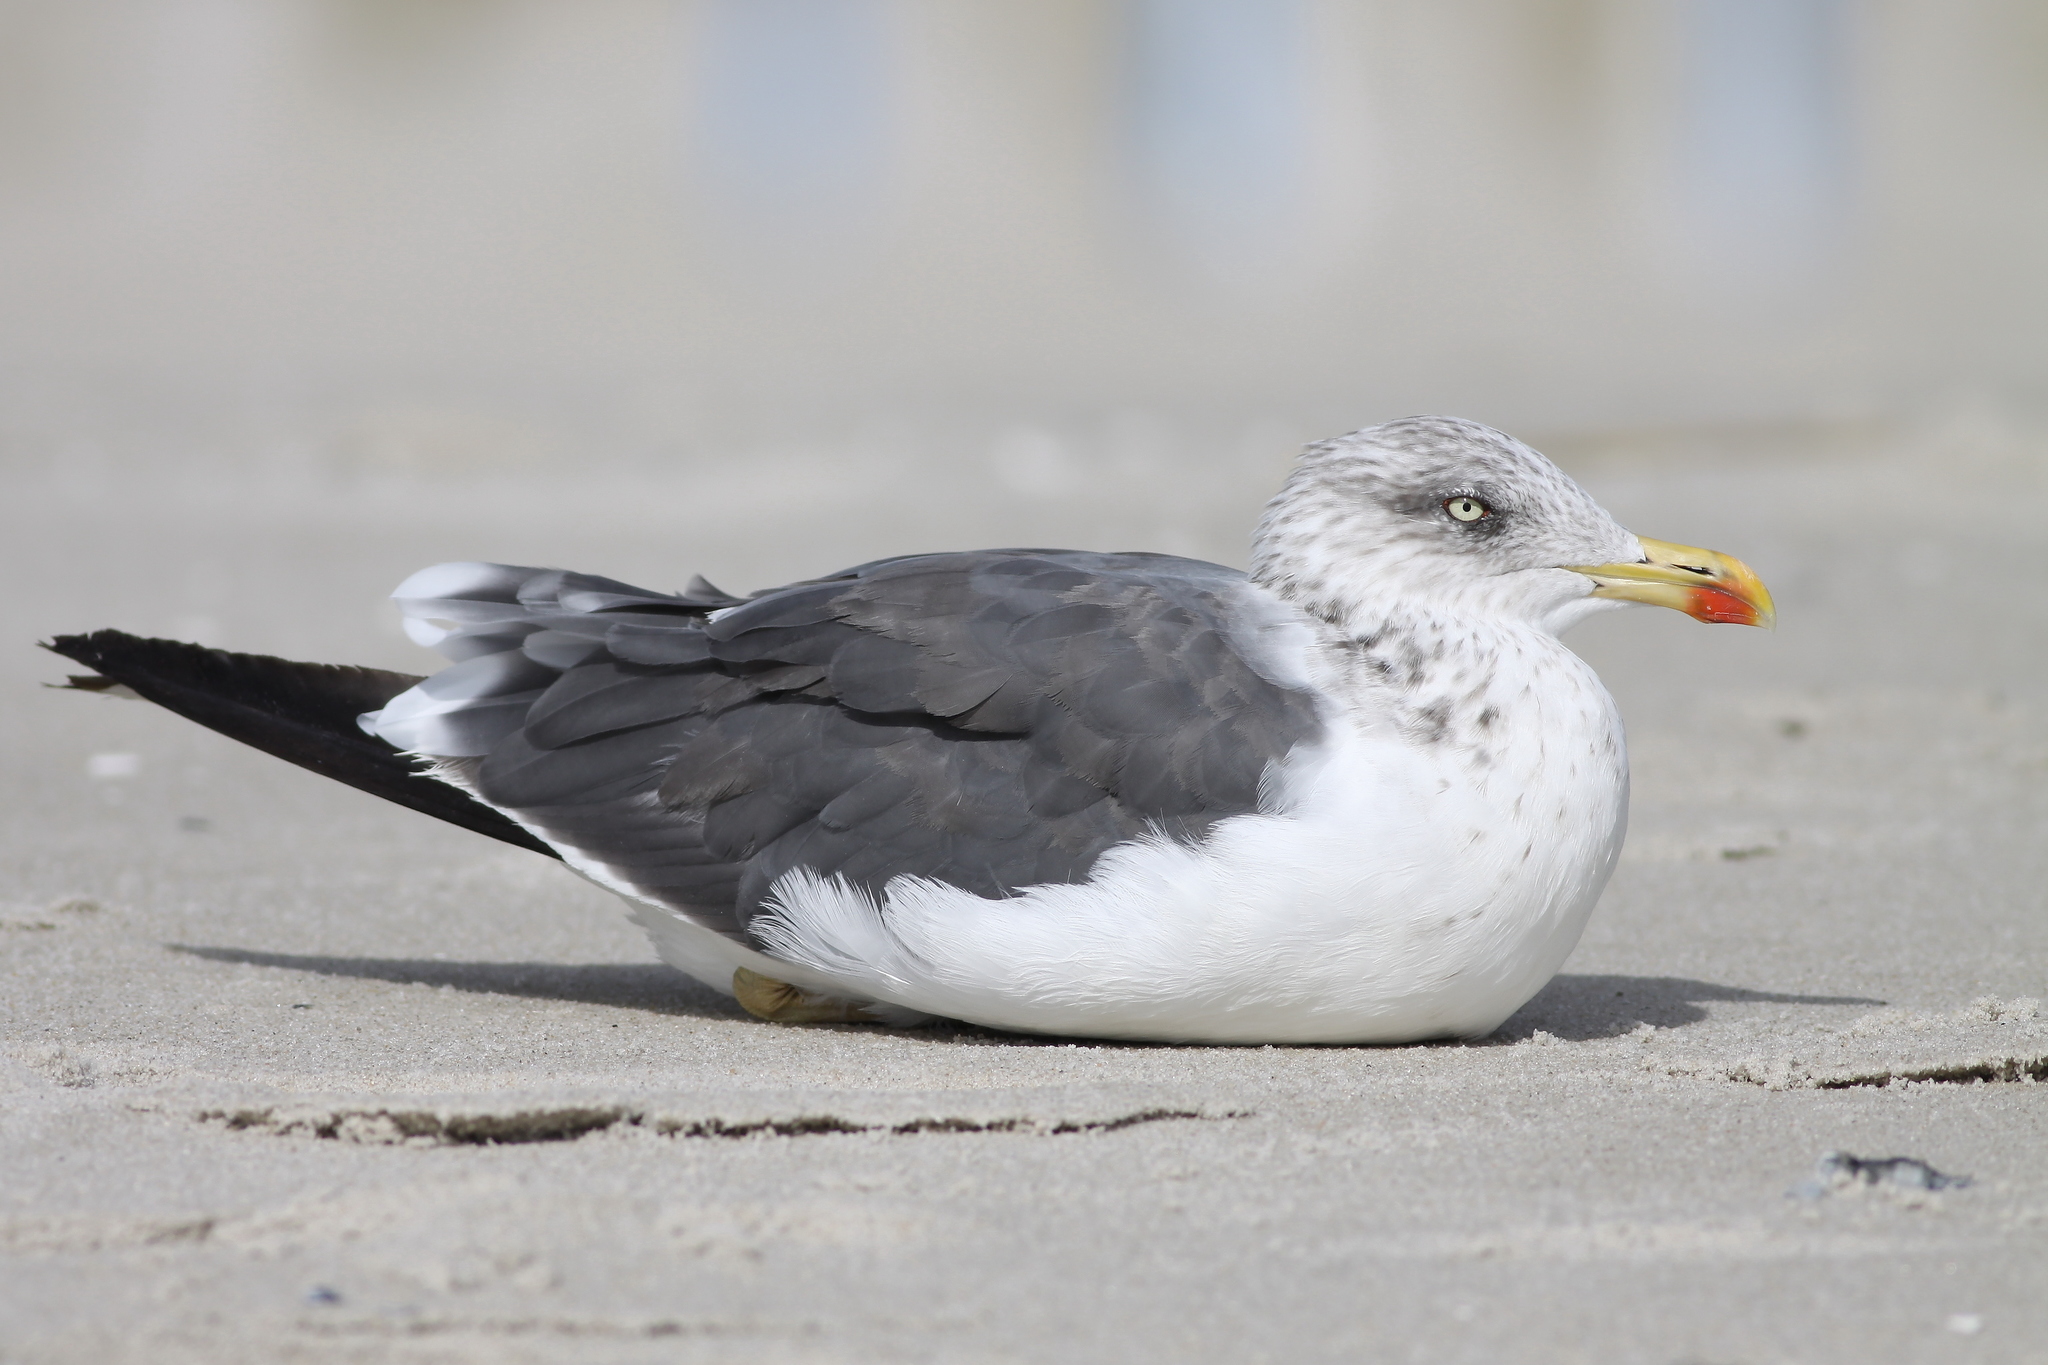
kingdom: Animalia
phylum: Chordata
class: Aves
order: Charadriiformes
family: Laridae
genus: Larus
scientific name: Larus fuscus
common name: Lesser black-backed gull
